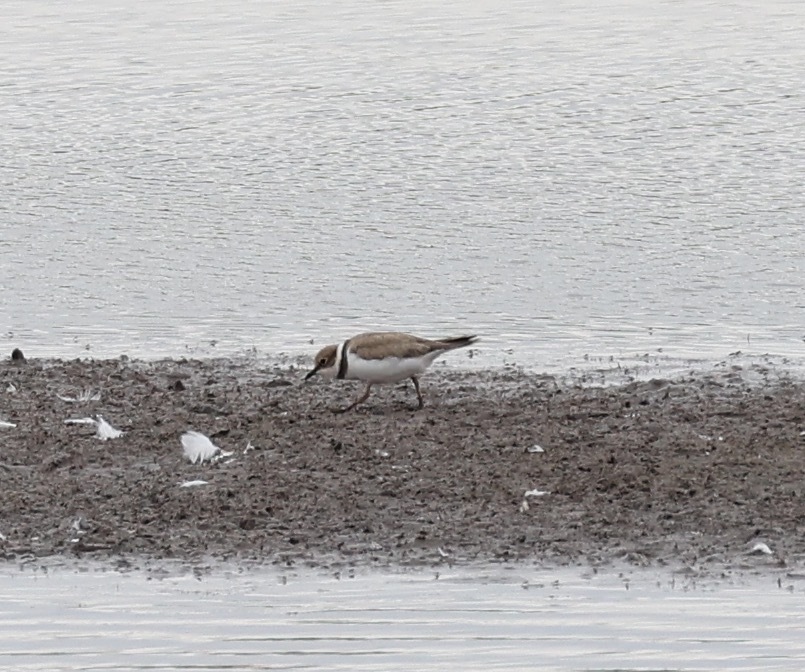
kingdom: Animalia
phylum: Chordata
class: Aves
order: Charadriiformes
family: Charadriidae
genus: Charadrius
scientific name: Charadrius dubius
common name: Little ringed plover
